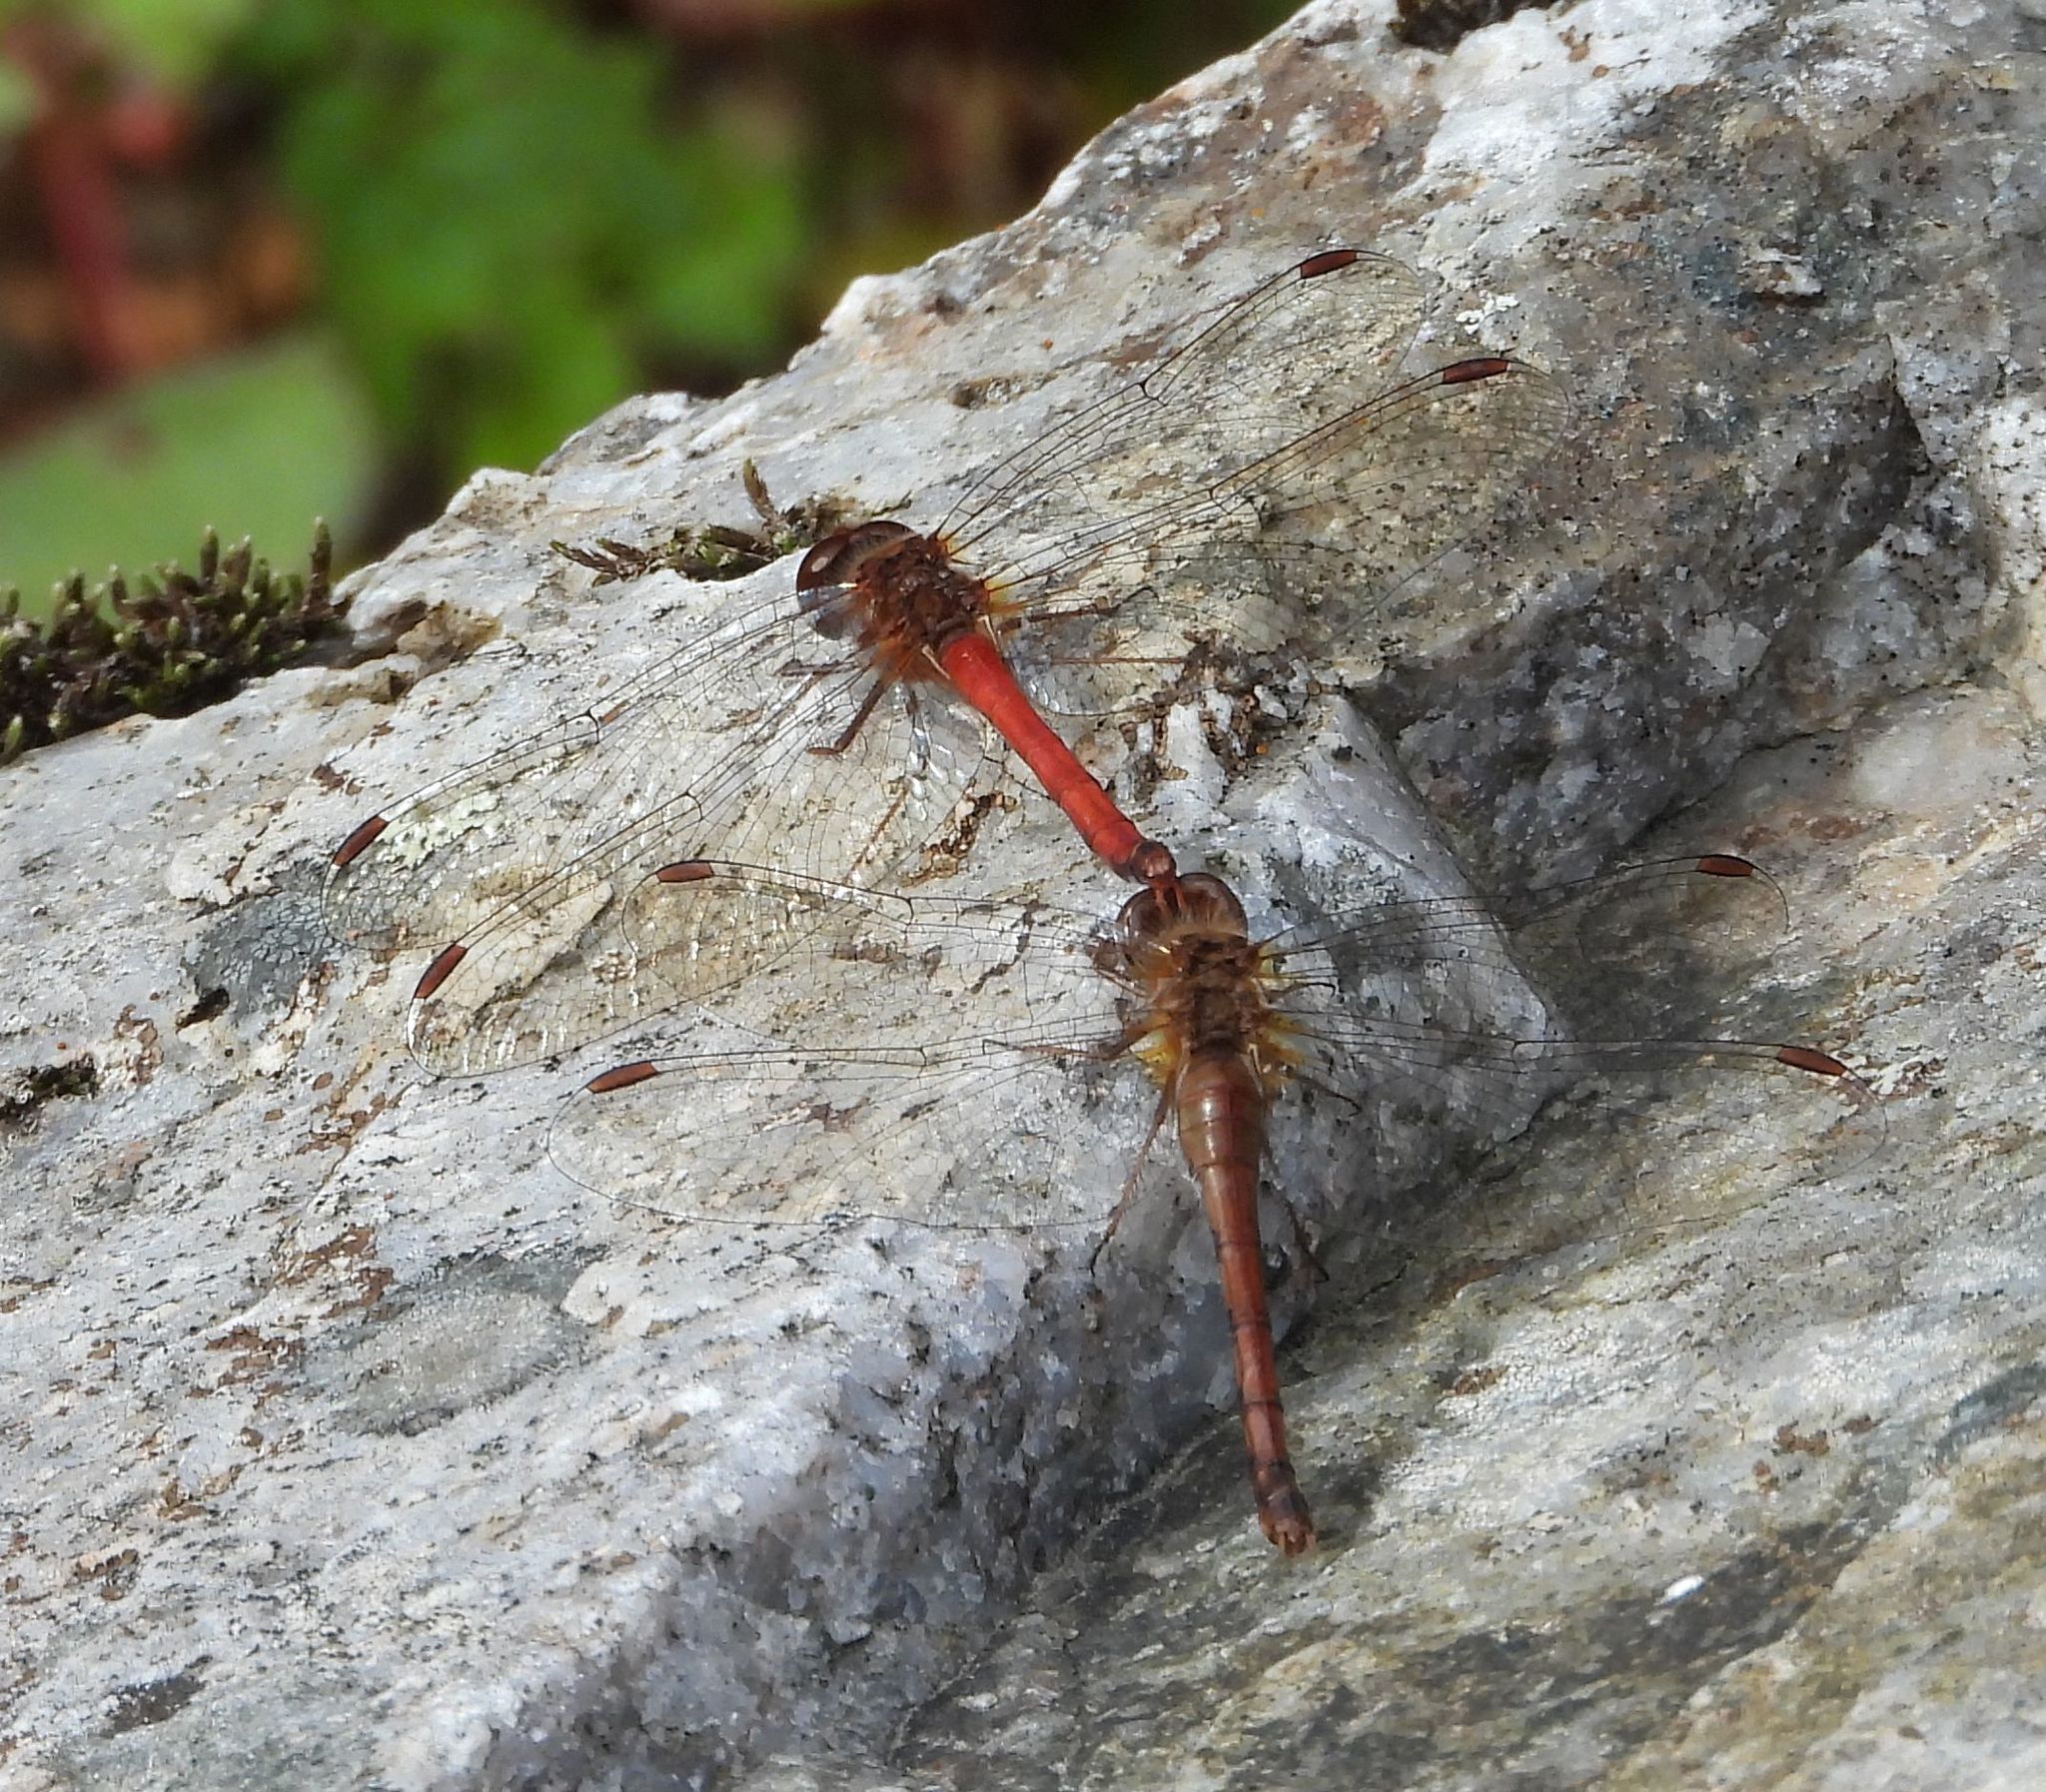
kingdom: Animalia
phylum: Arthropoda
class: Insecta
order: Odonata
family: Libellulidae
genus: Sympetrum
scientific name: Sympetrum vicinum
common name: Autumn meadowhawk
